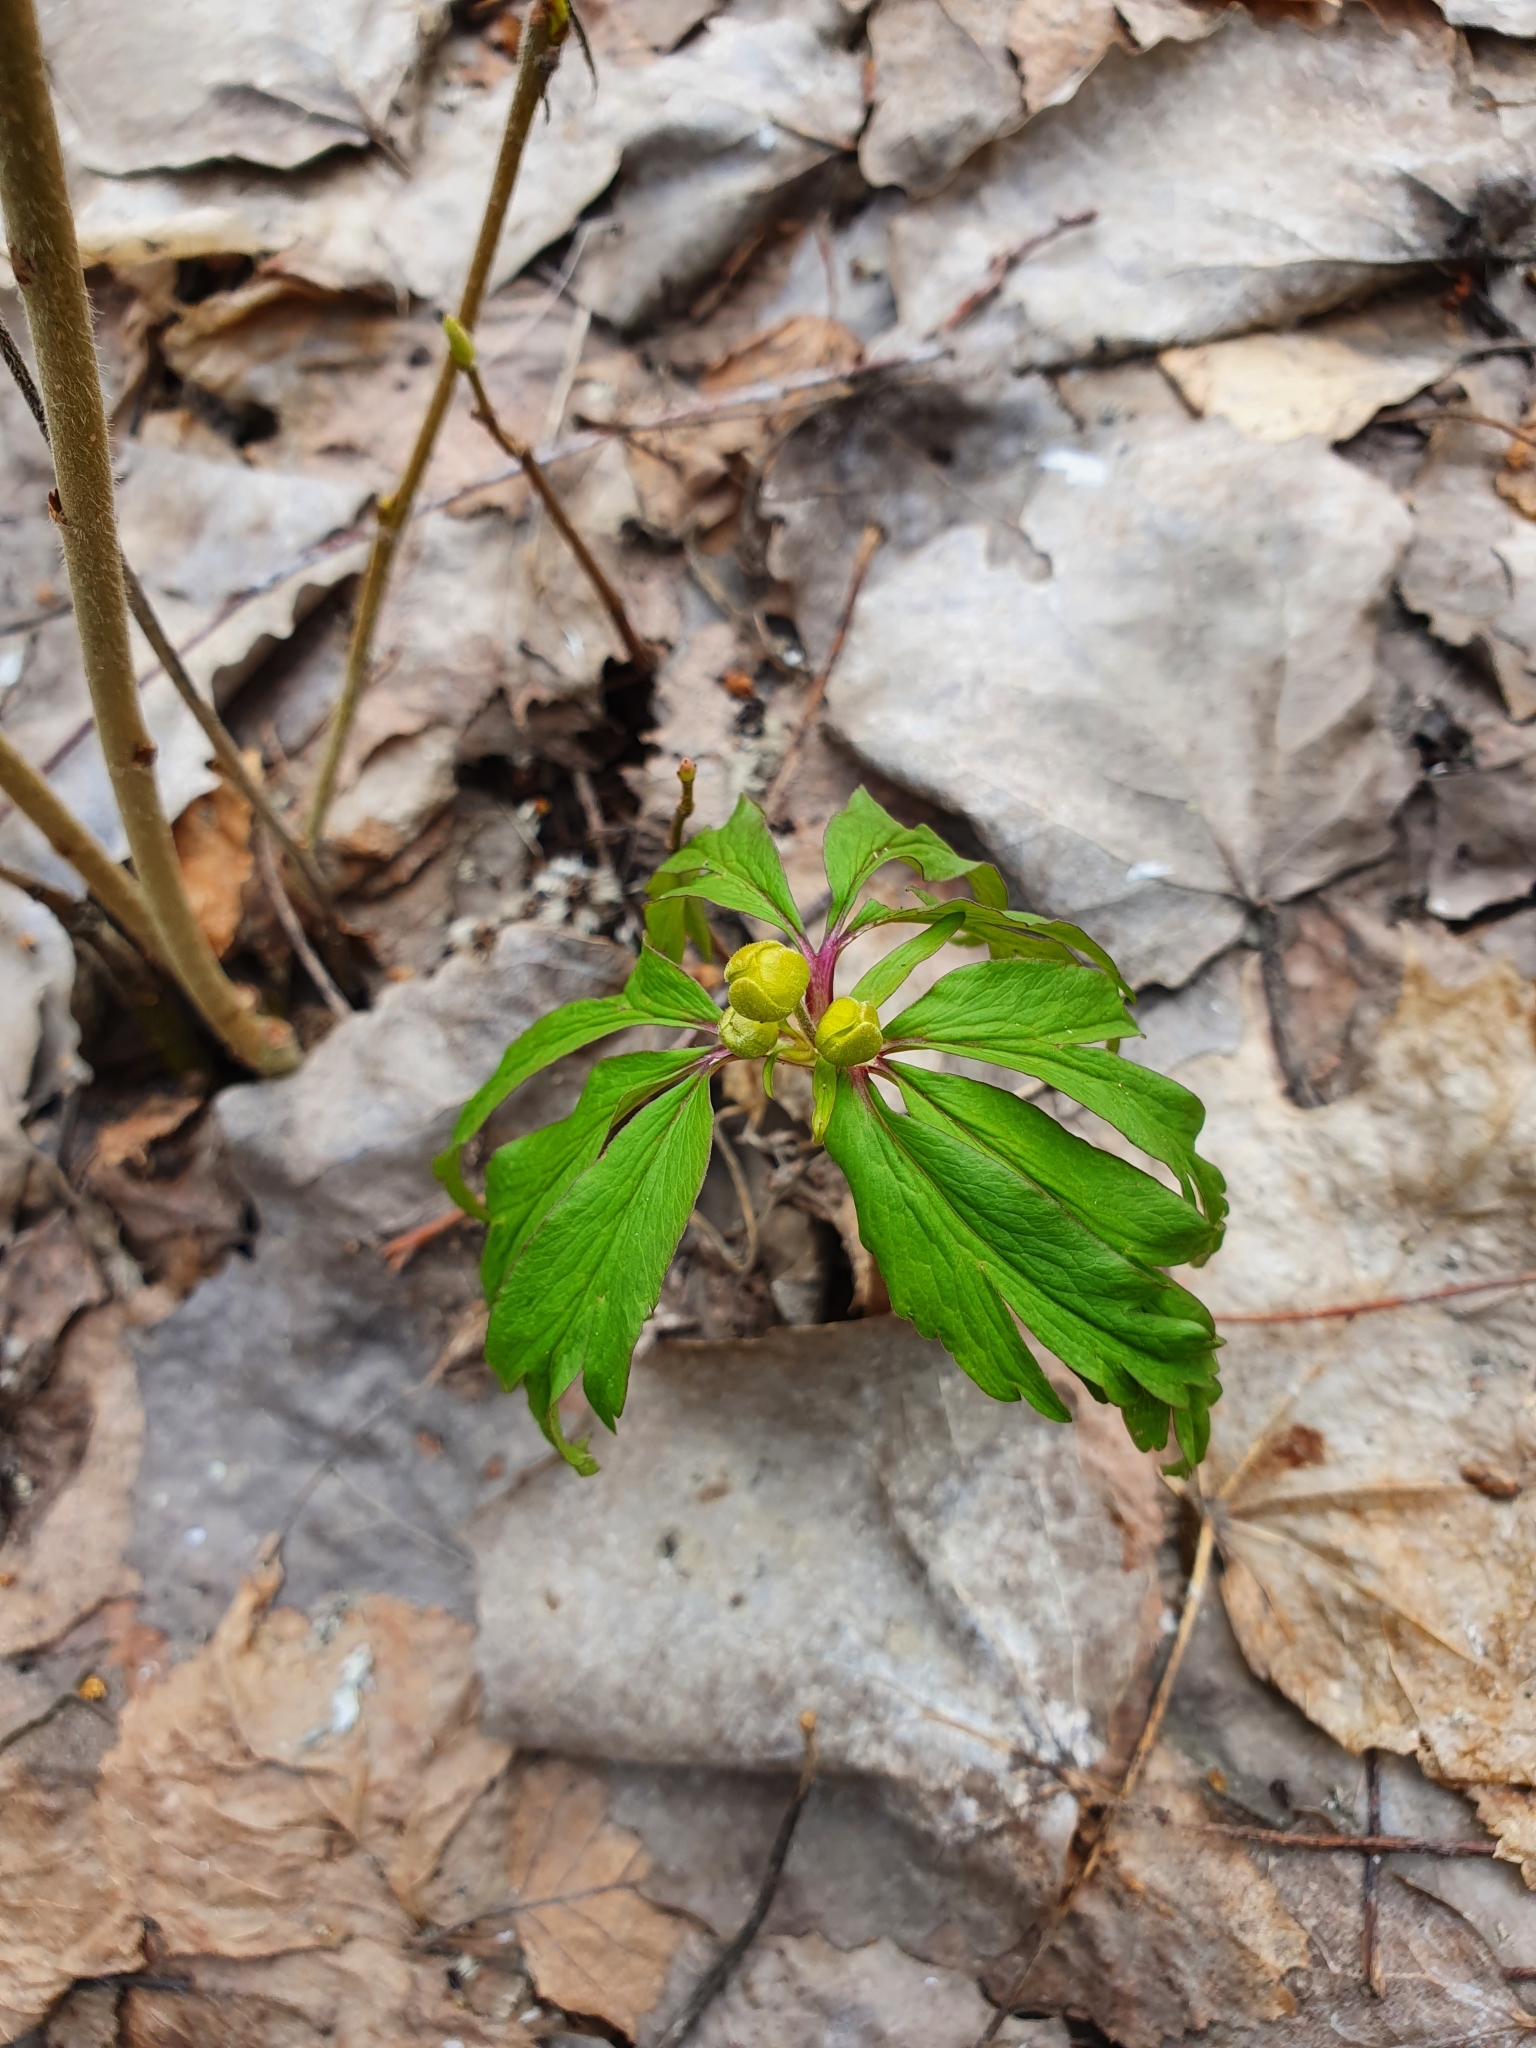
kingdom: Plantae
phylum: Tracheophyta
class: Magnoliopsida
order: Ranunculales
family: Ranunculaceae
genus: Anemone
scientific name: Anemone ranunculoides
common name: Yellow anemone
